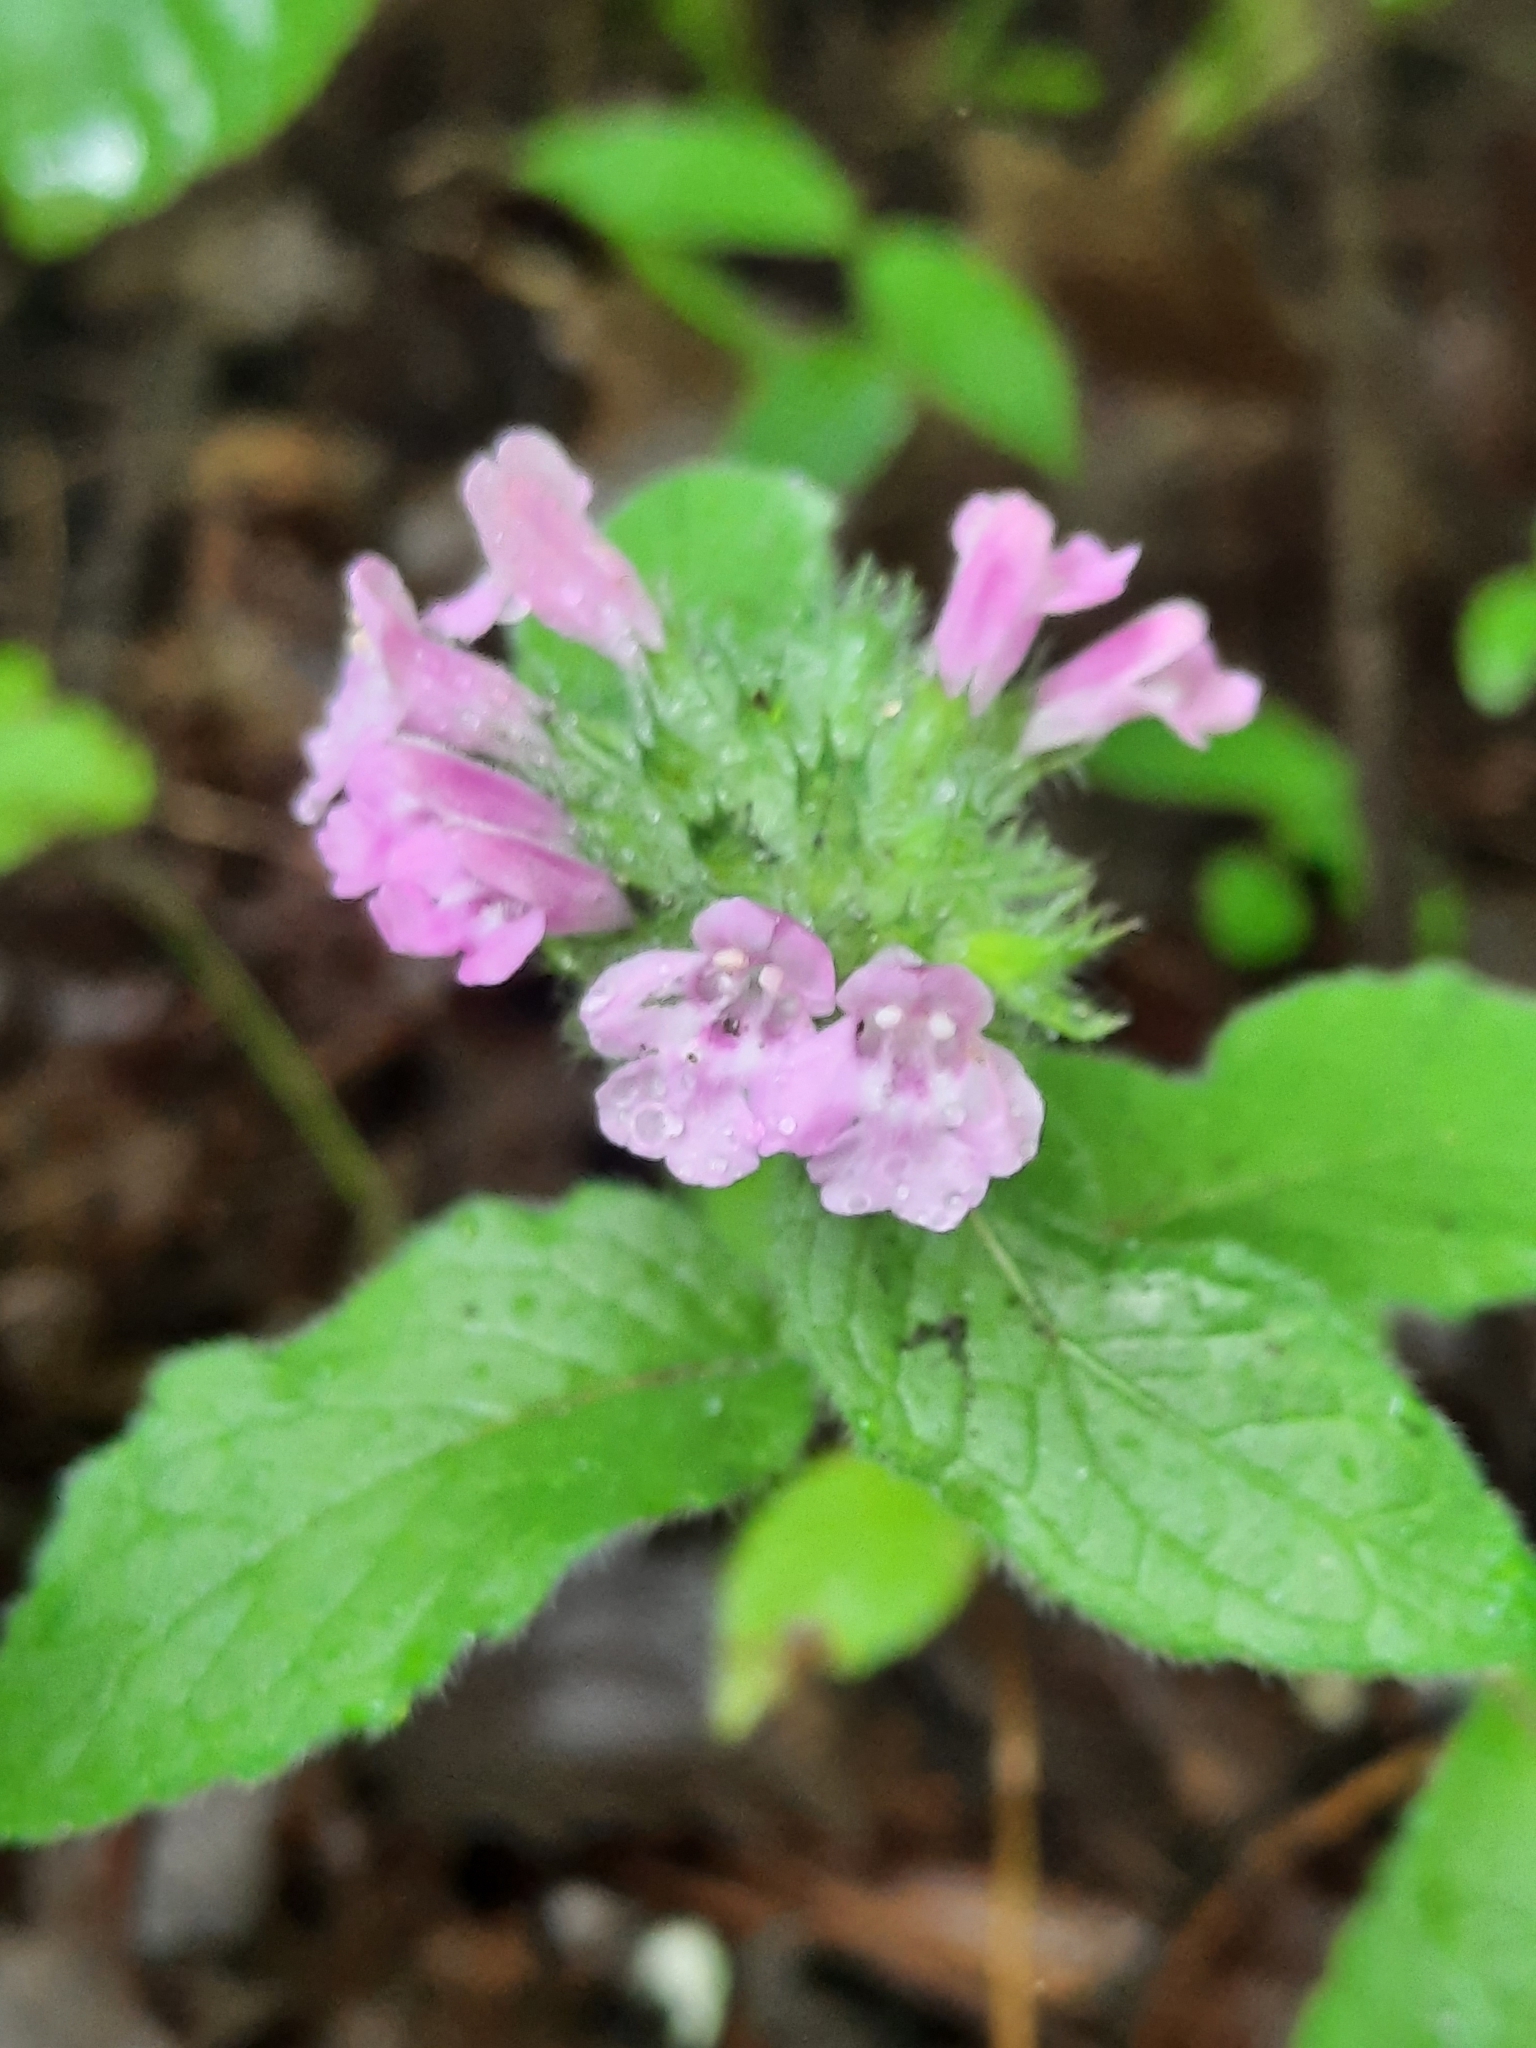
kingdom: Plantae
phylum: Tracheophyta
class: Magnoliopsida
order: Lamiales
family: Lamiaceae
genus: Clinopodium
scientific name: Clinopodium vulgare
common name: Wild basil
